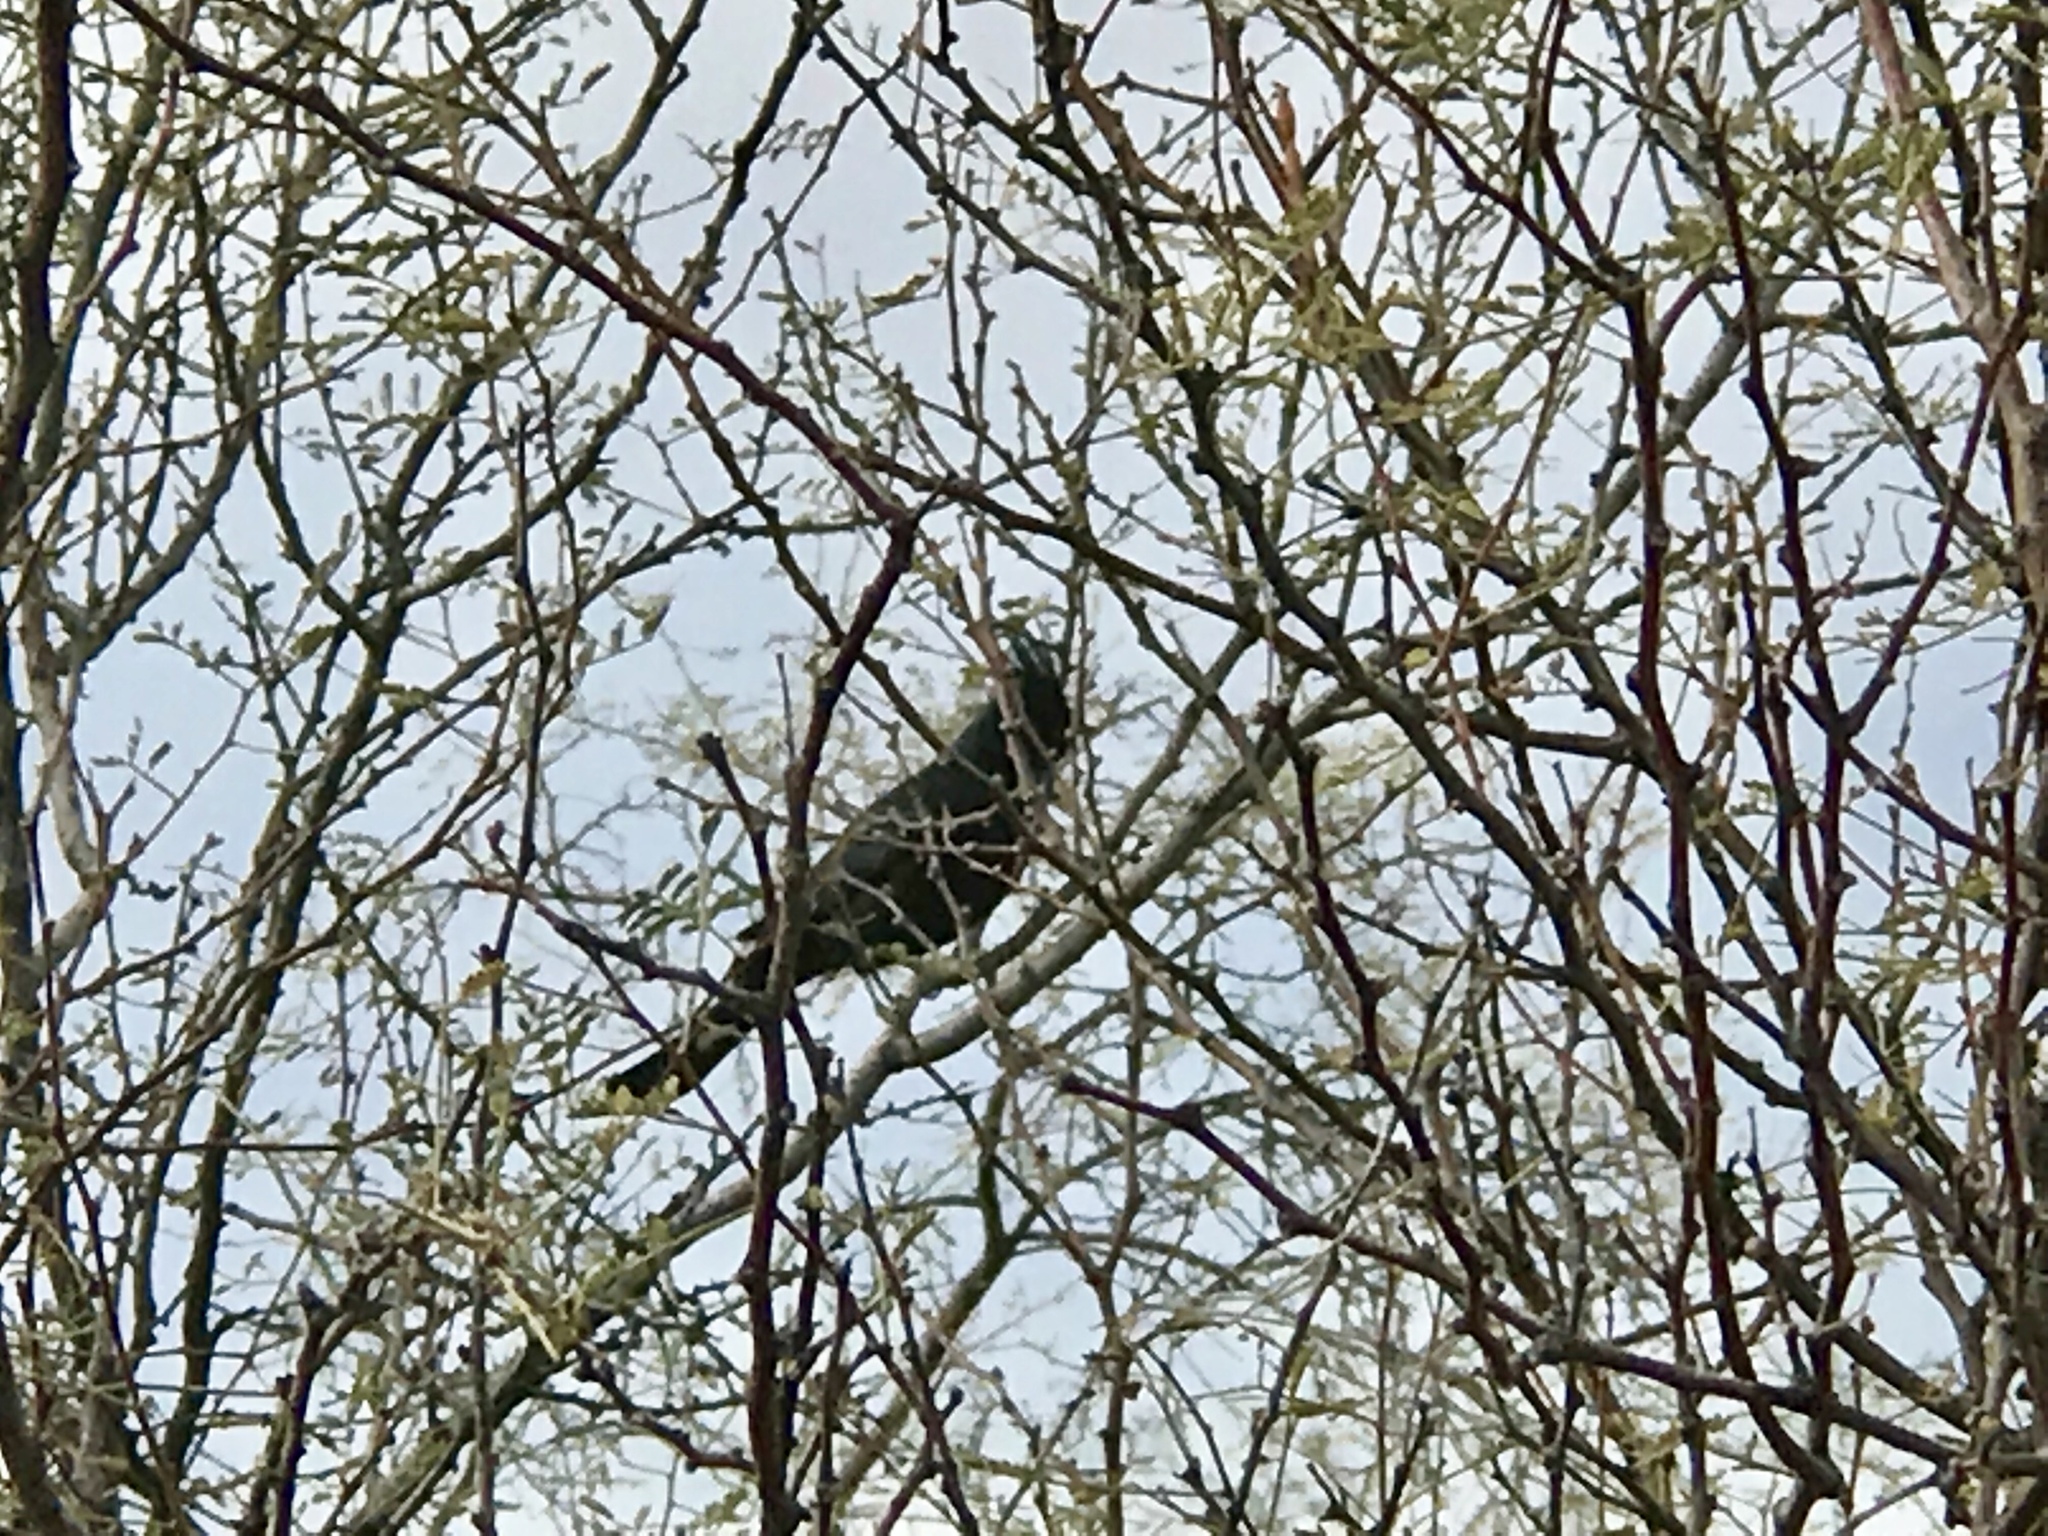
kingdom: Animalia
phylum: Chordata
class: Aves
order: Passeriformes
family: Ptilogonatidae
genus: Phainopepla
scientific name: Phainopepla nitens
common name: Phainopepla
